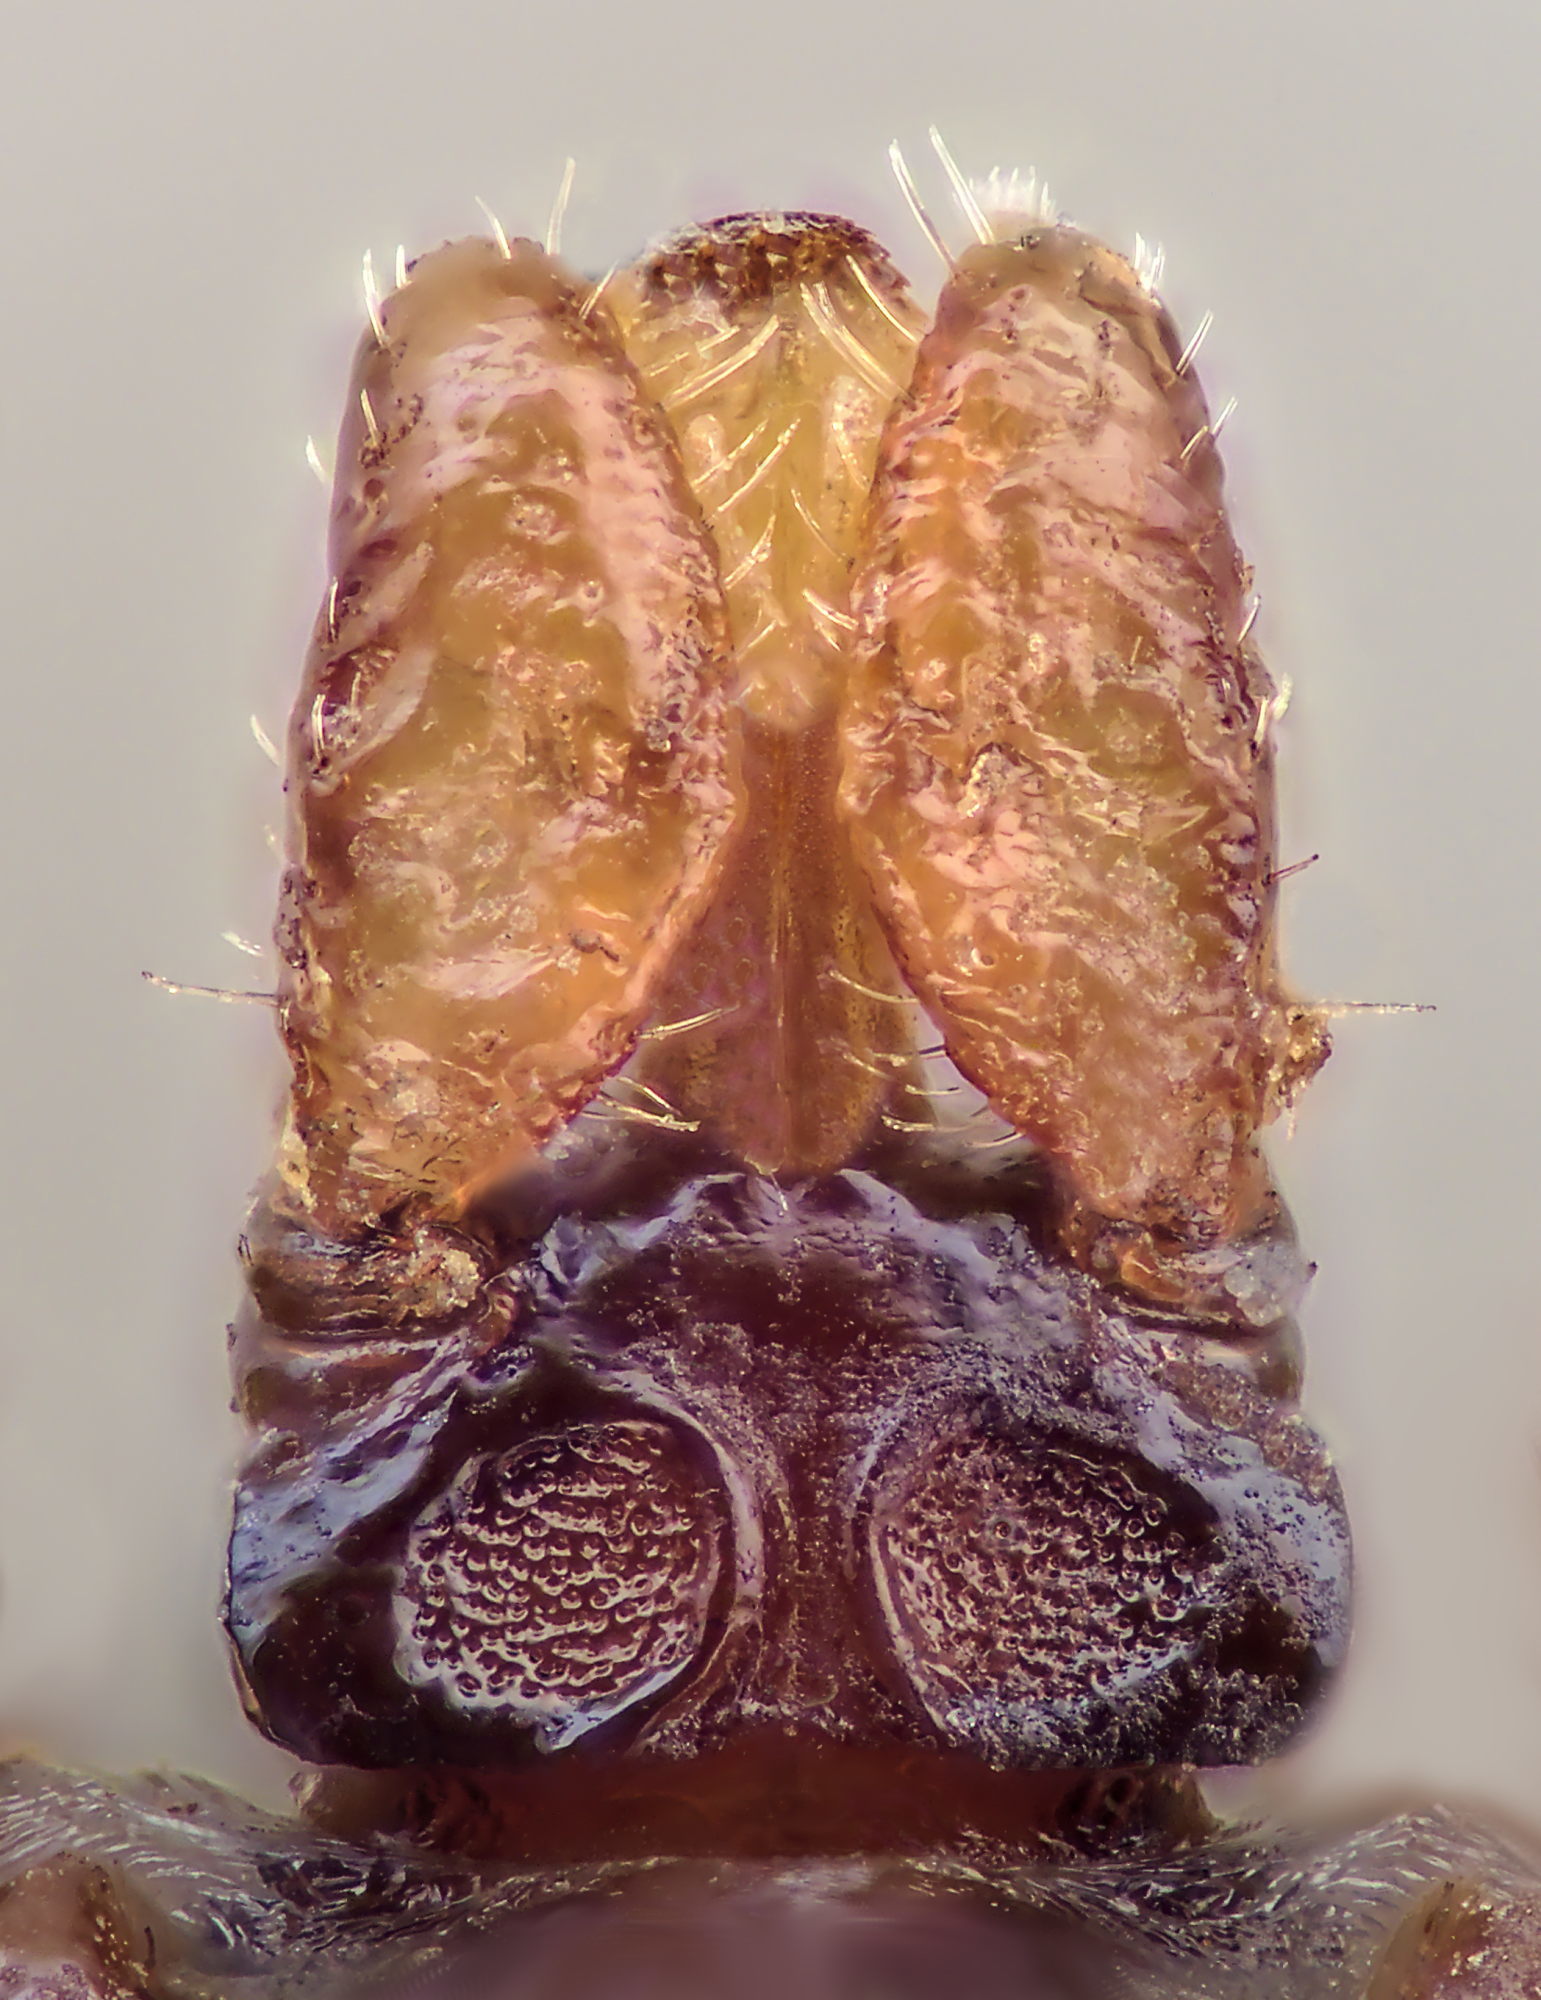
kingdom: Animalia
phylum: Arthropoda
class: Arachnida
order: Ixodida
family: Ixodidae
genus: Ixodes
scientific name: Ixodes canisuga
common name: Dog tick
